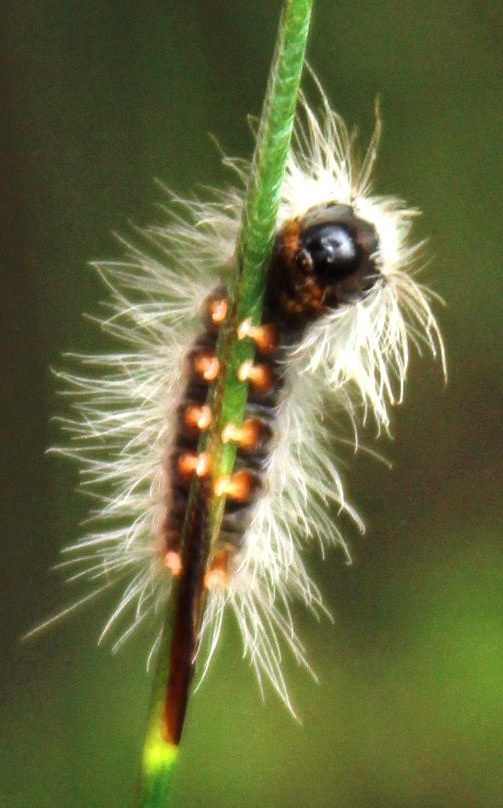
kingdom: Animalia
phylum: Arthropoda
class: Insecta
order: Lepidoptera
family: Erebidae
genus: Euproctis
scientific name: Euproctis haemodetes
